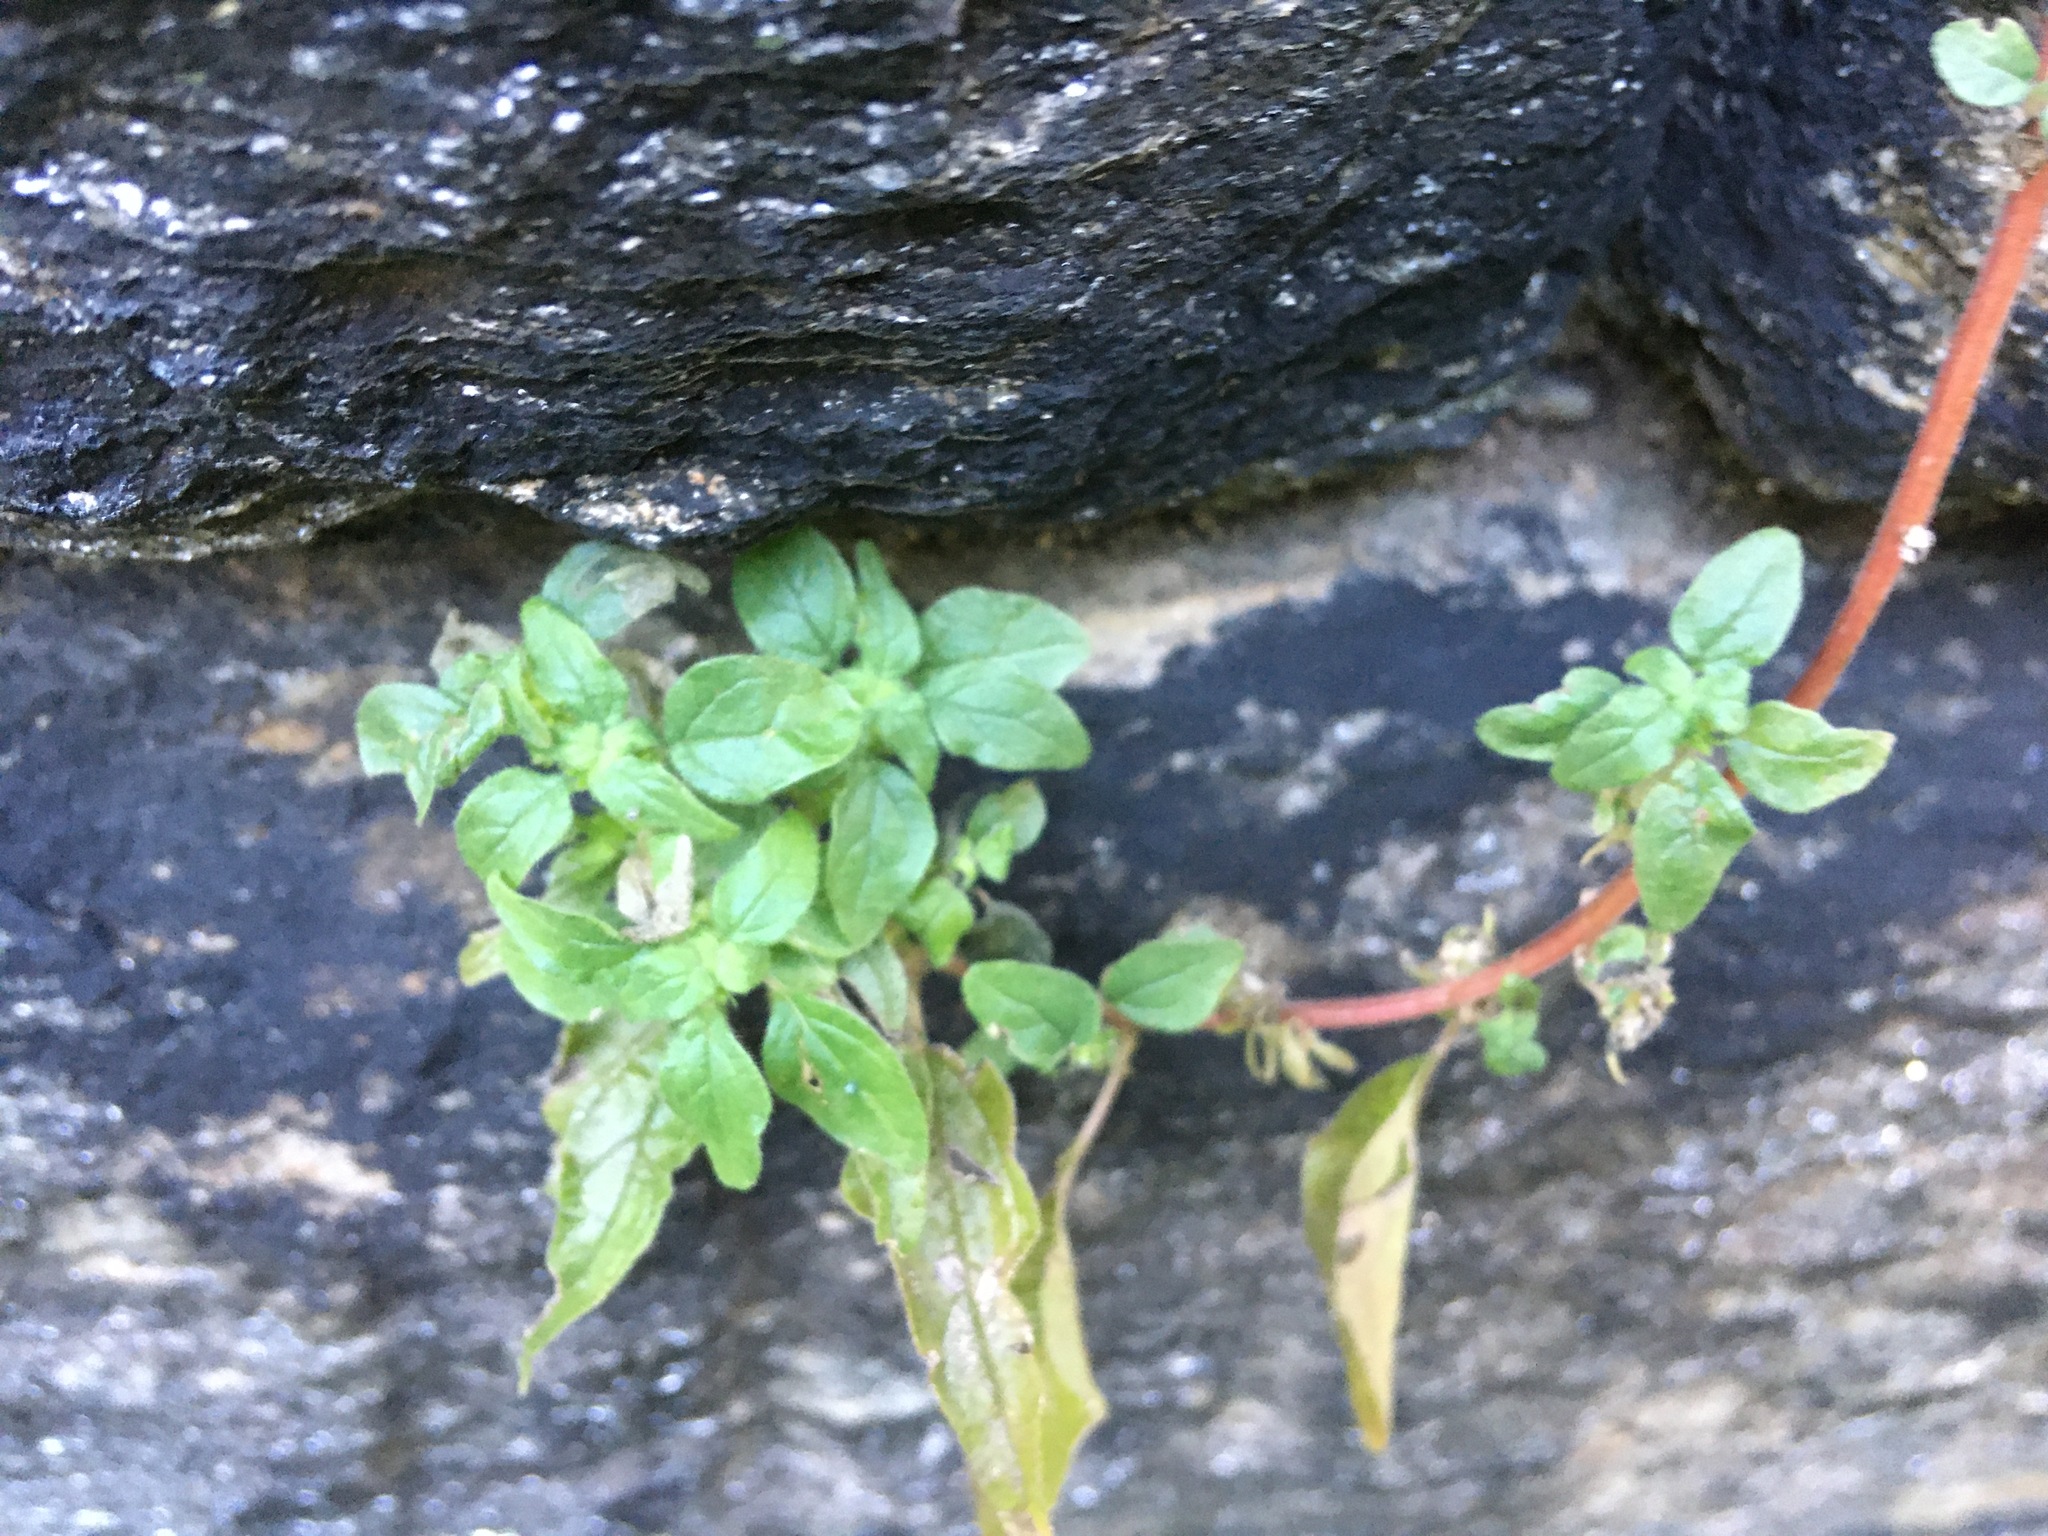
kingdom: Plantae
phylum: Tracheophyta
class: Magnoliopsida
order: Rosales
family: Urticaceae
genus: Parietaria
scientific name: Parietaria pensylvanica
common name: Pennsylvania pellitory
